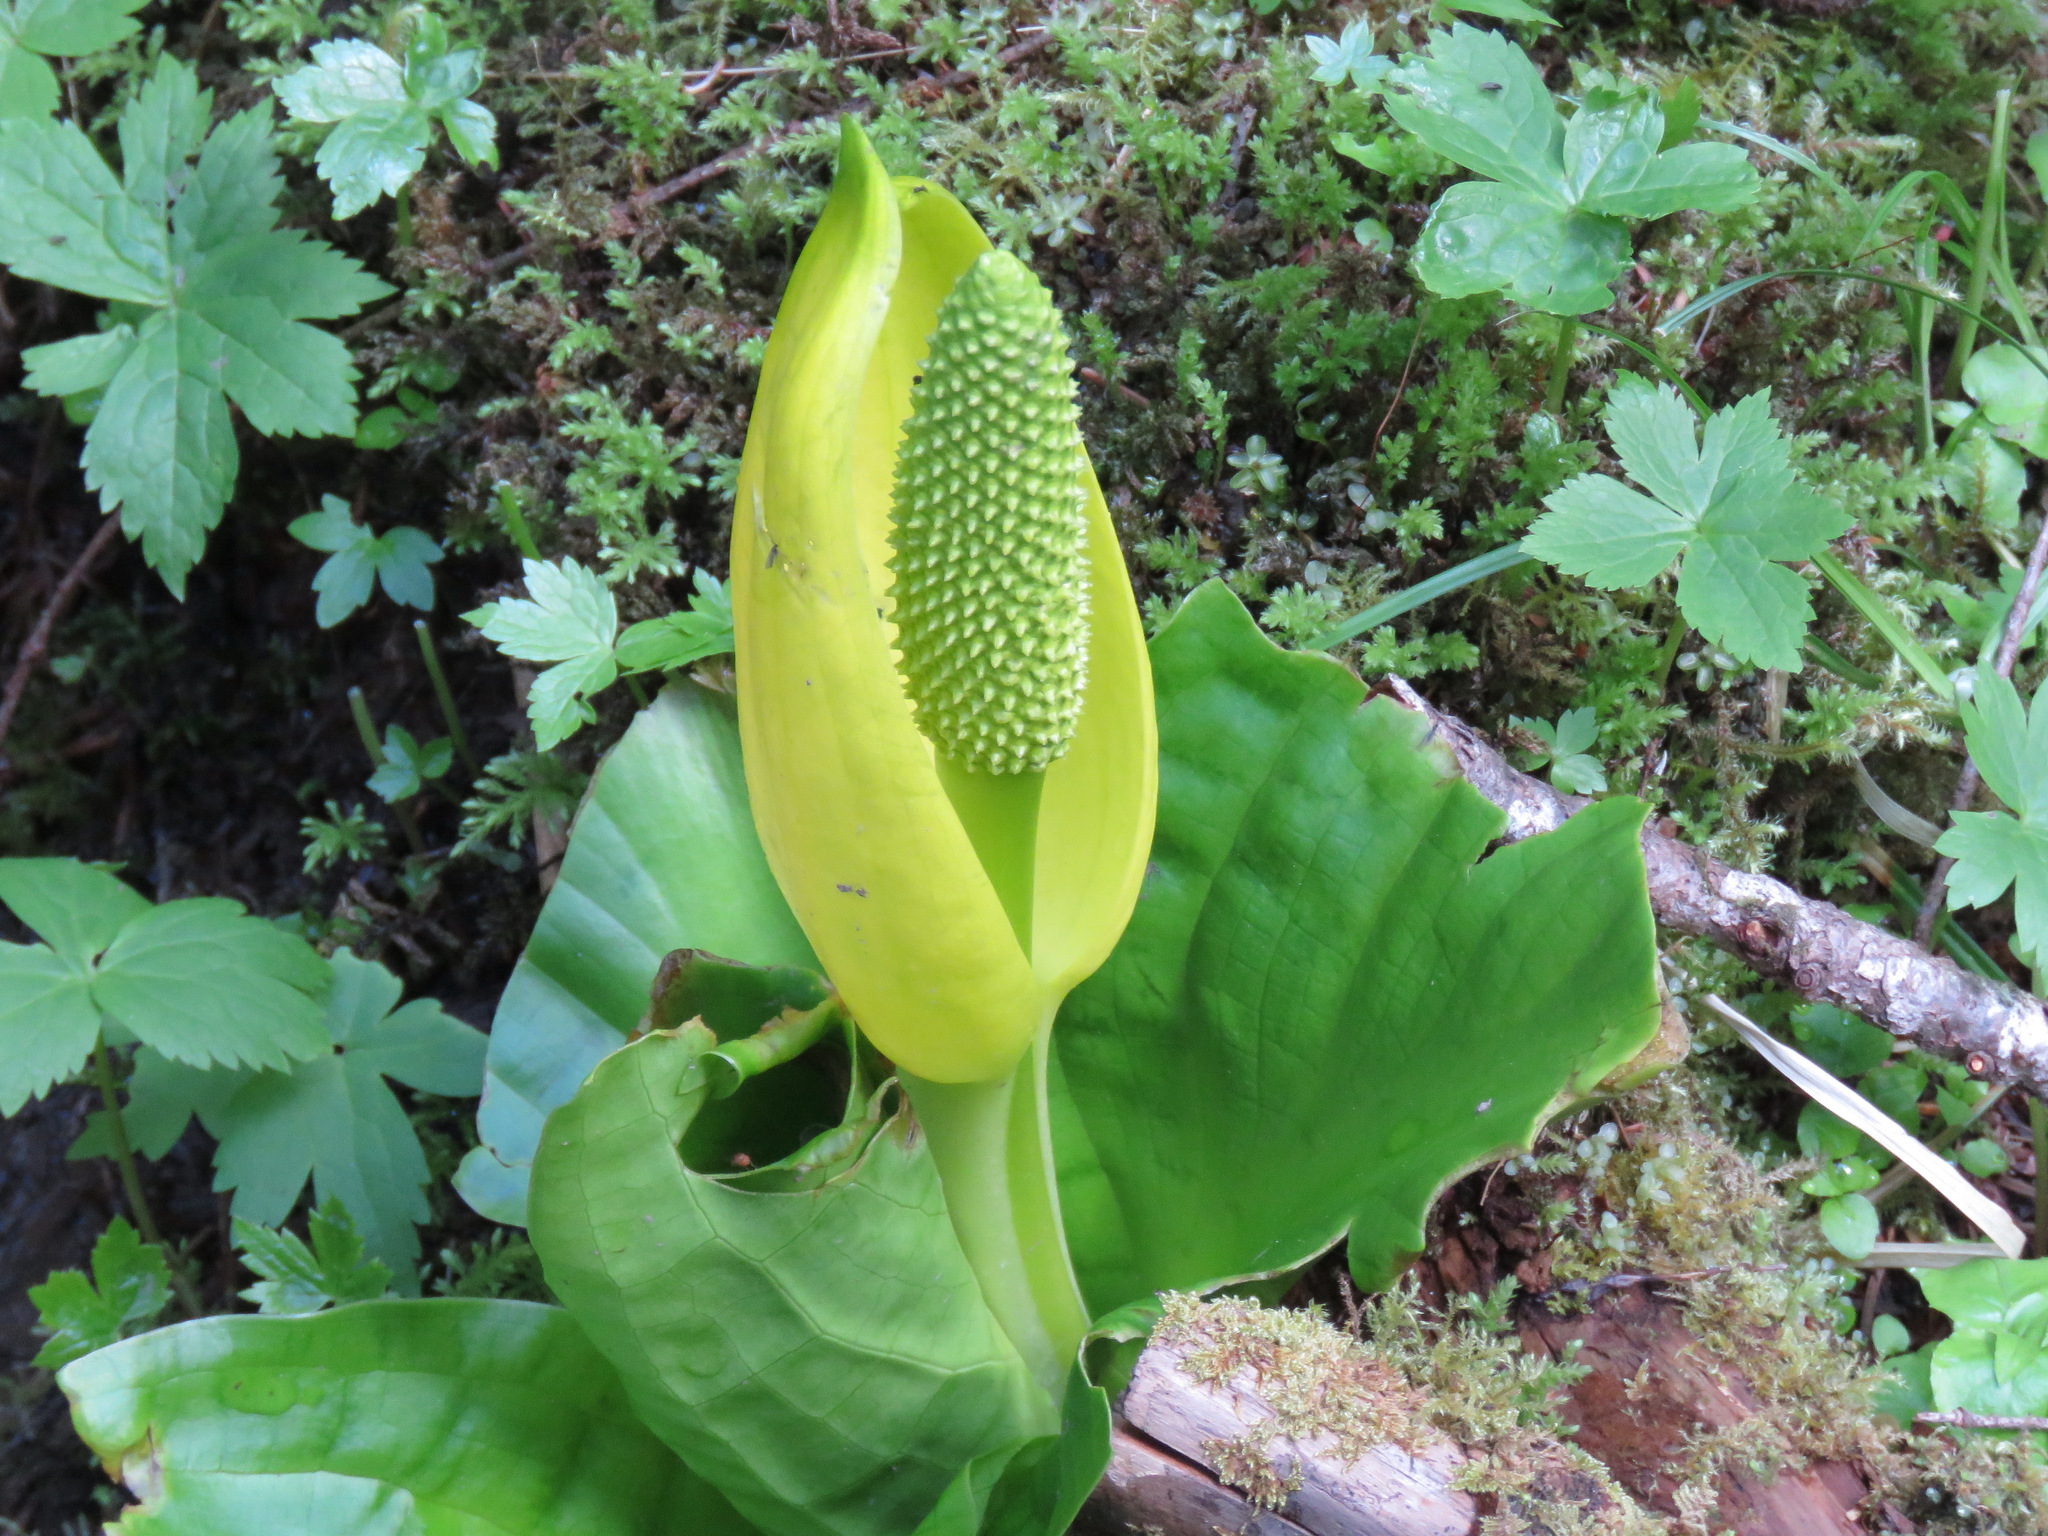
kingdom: Plantae
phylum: Tracheophyta
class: Liliopsida
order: Alismatales
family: Araceae
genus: Lysichiton
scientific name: Lysichiton americanus
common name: American skunk cabbage
